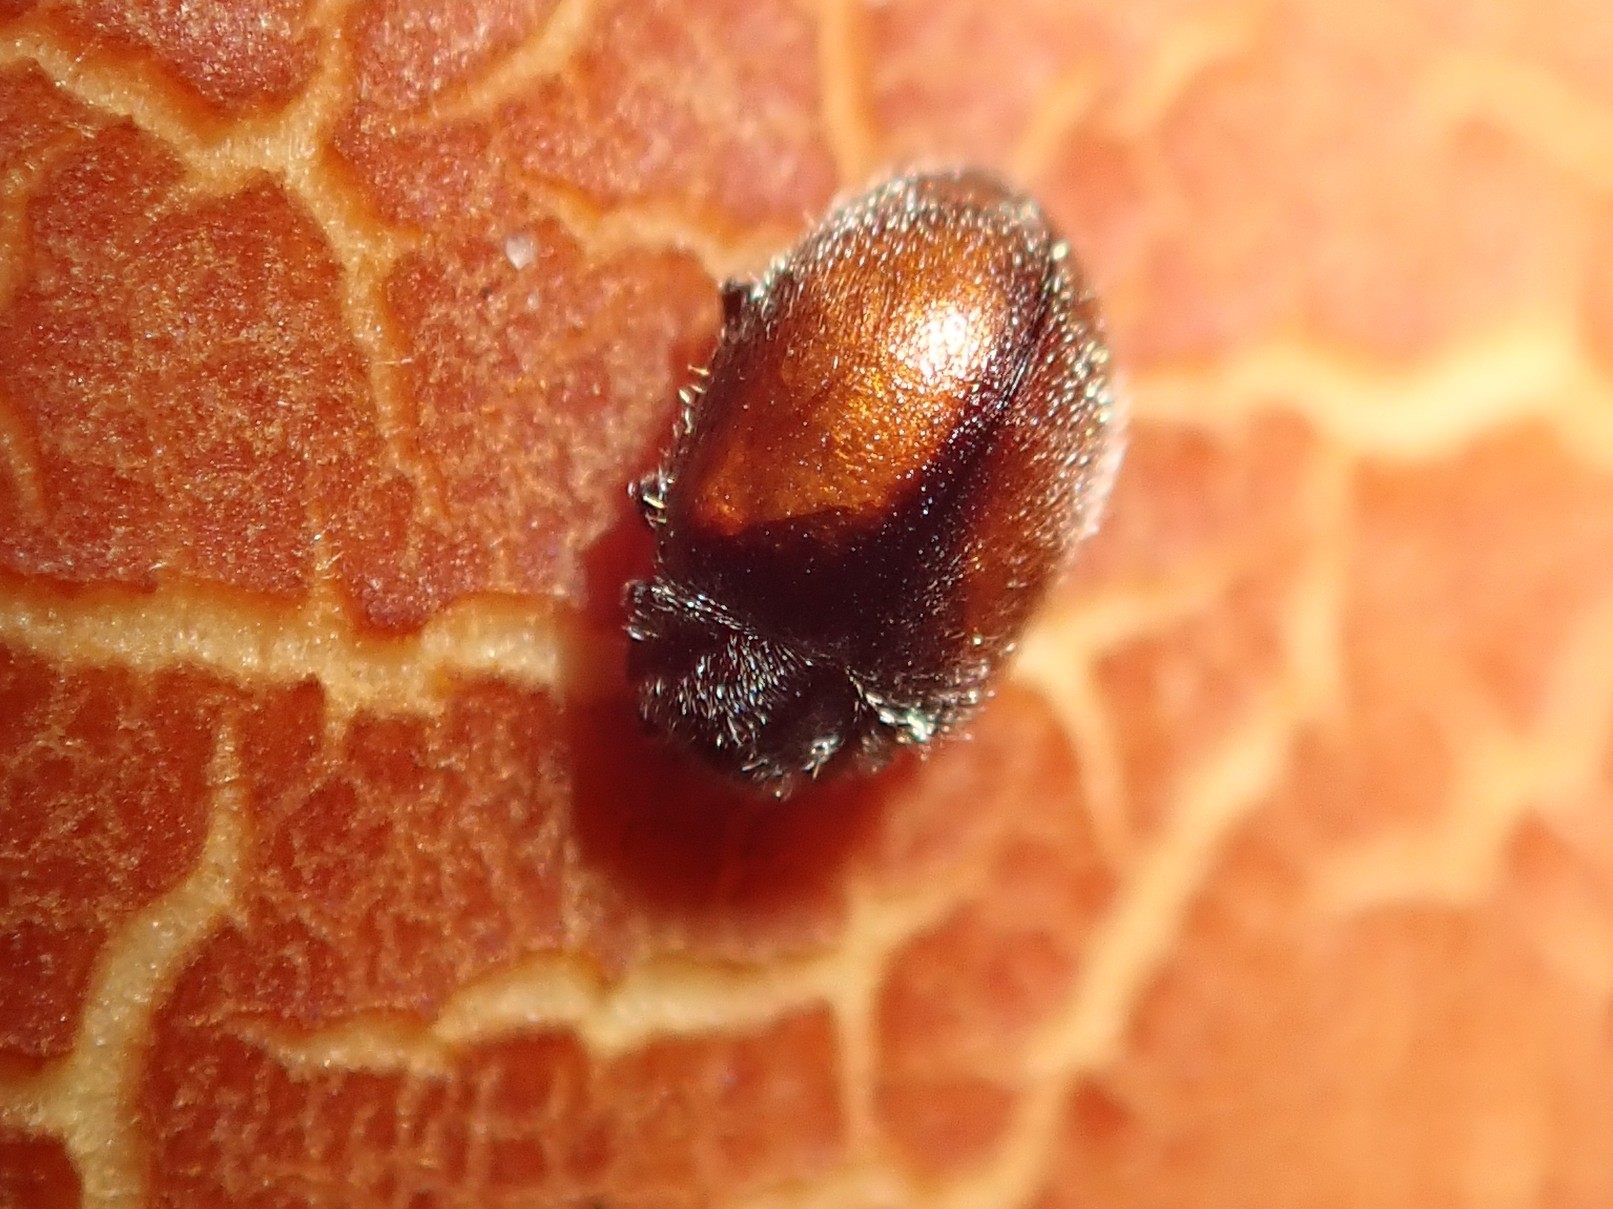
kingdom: Animalia
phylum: Arthropoda
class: Insecta
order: Coleoptera
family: Coccinellidae
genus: Scymnus
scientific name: Scymnus suturalis
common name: Ladybird beetle
